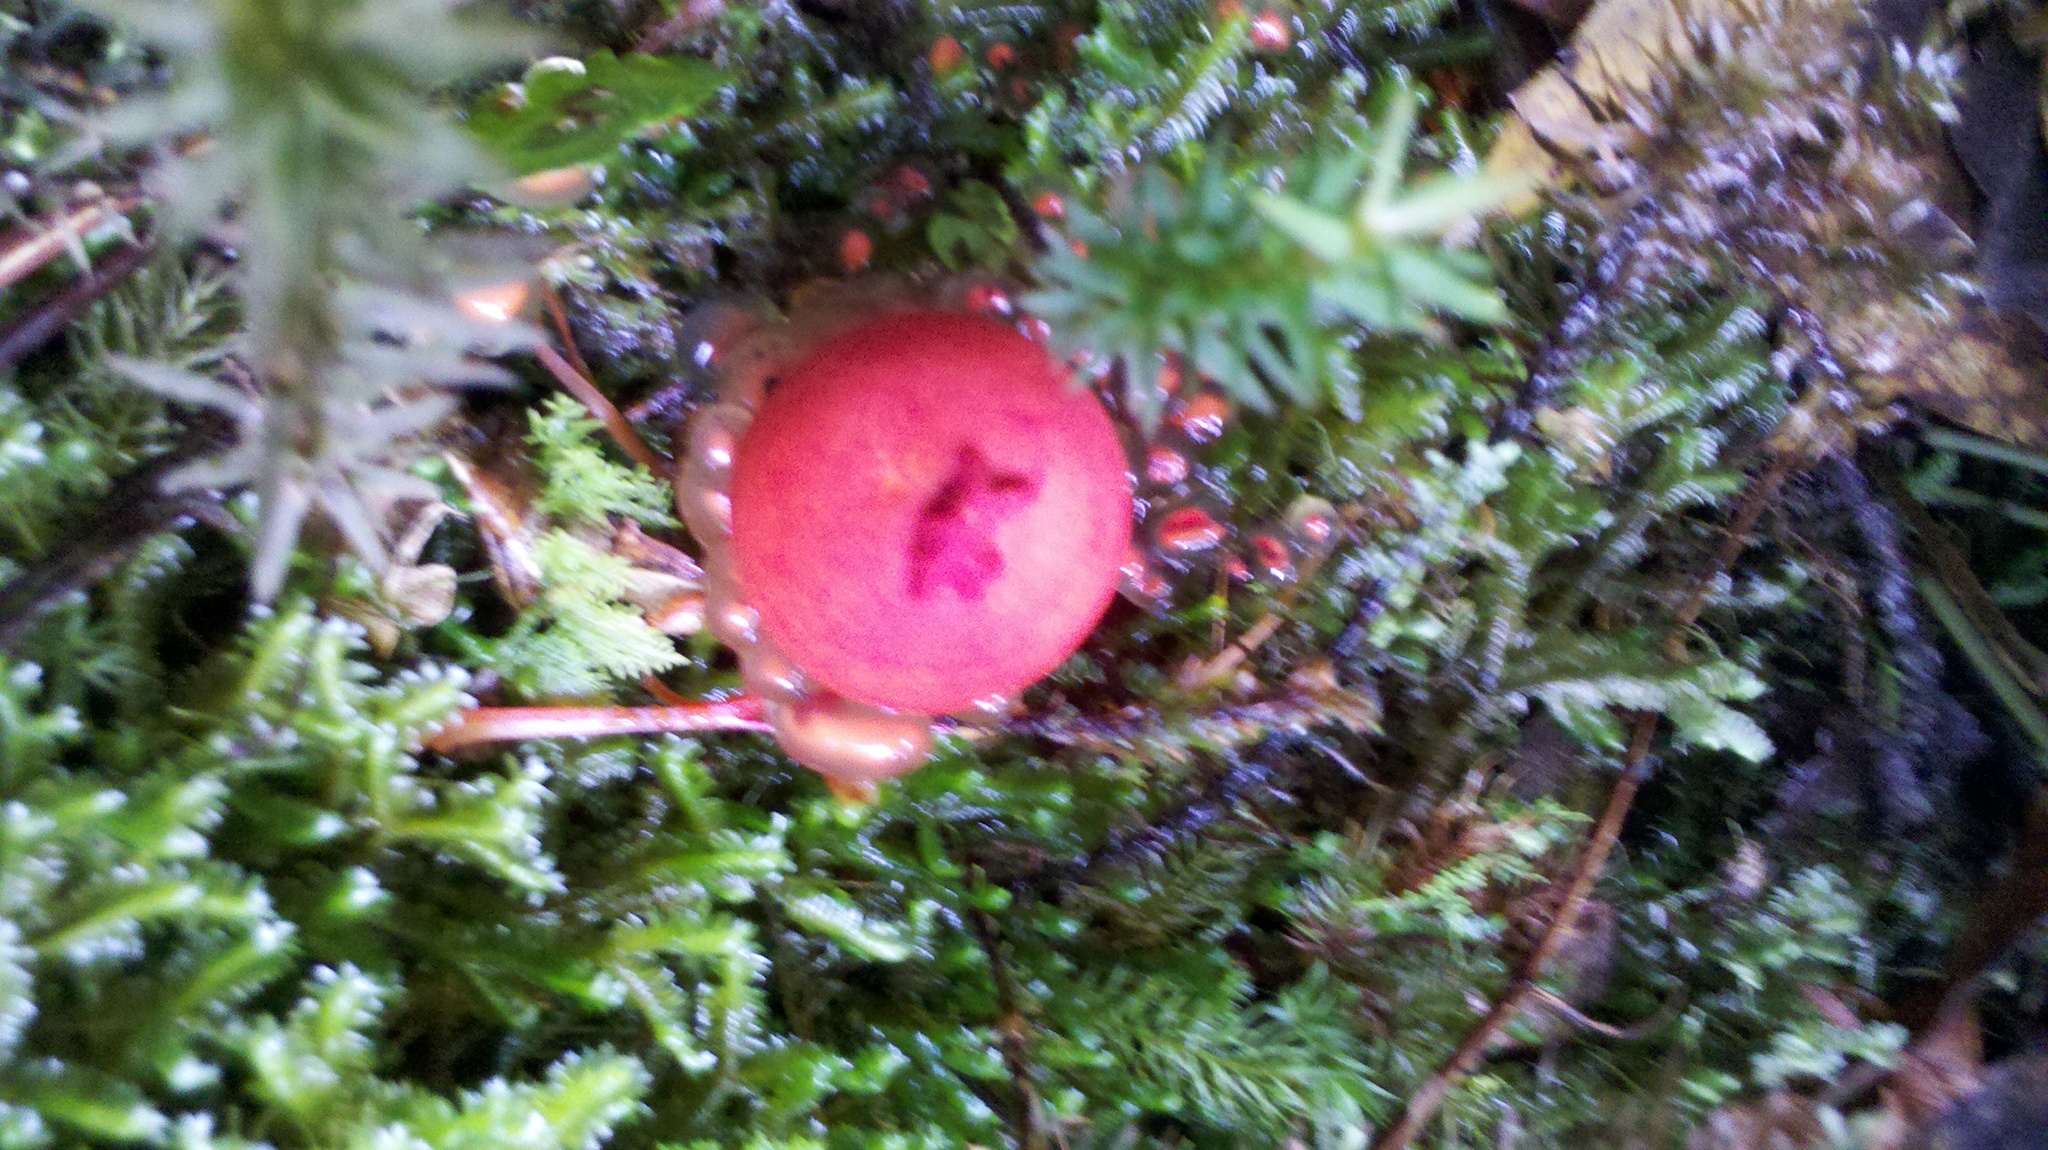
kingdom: Fungi
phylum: Basidiomycota
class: Agaricomycetes
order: Boletales
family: Calostomataceae
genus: Calostoma
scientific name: Calostoma cinnabarinum
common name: Stalked puffball-in-aspic
